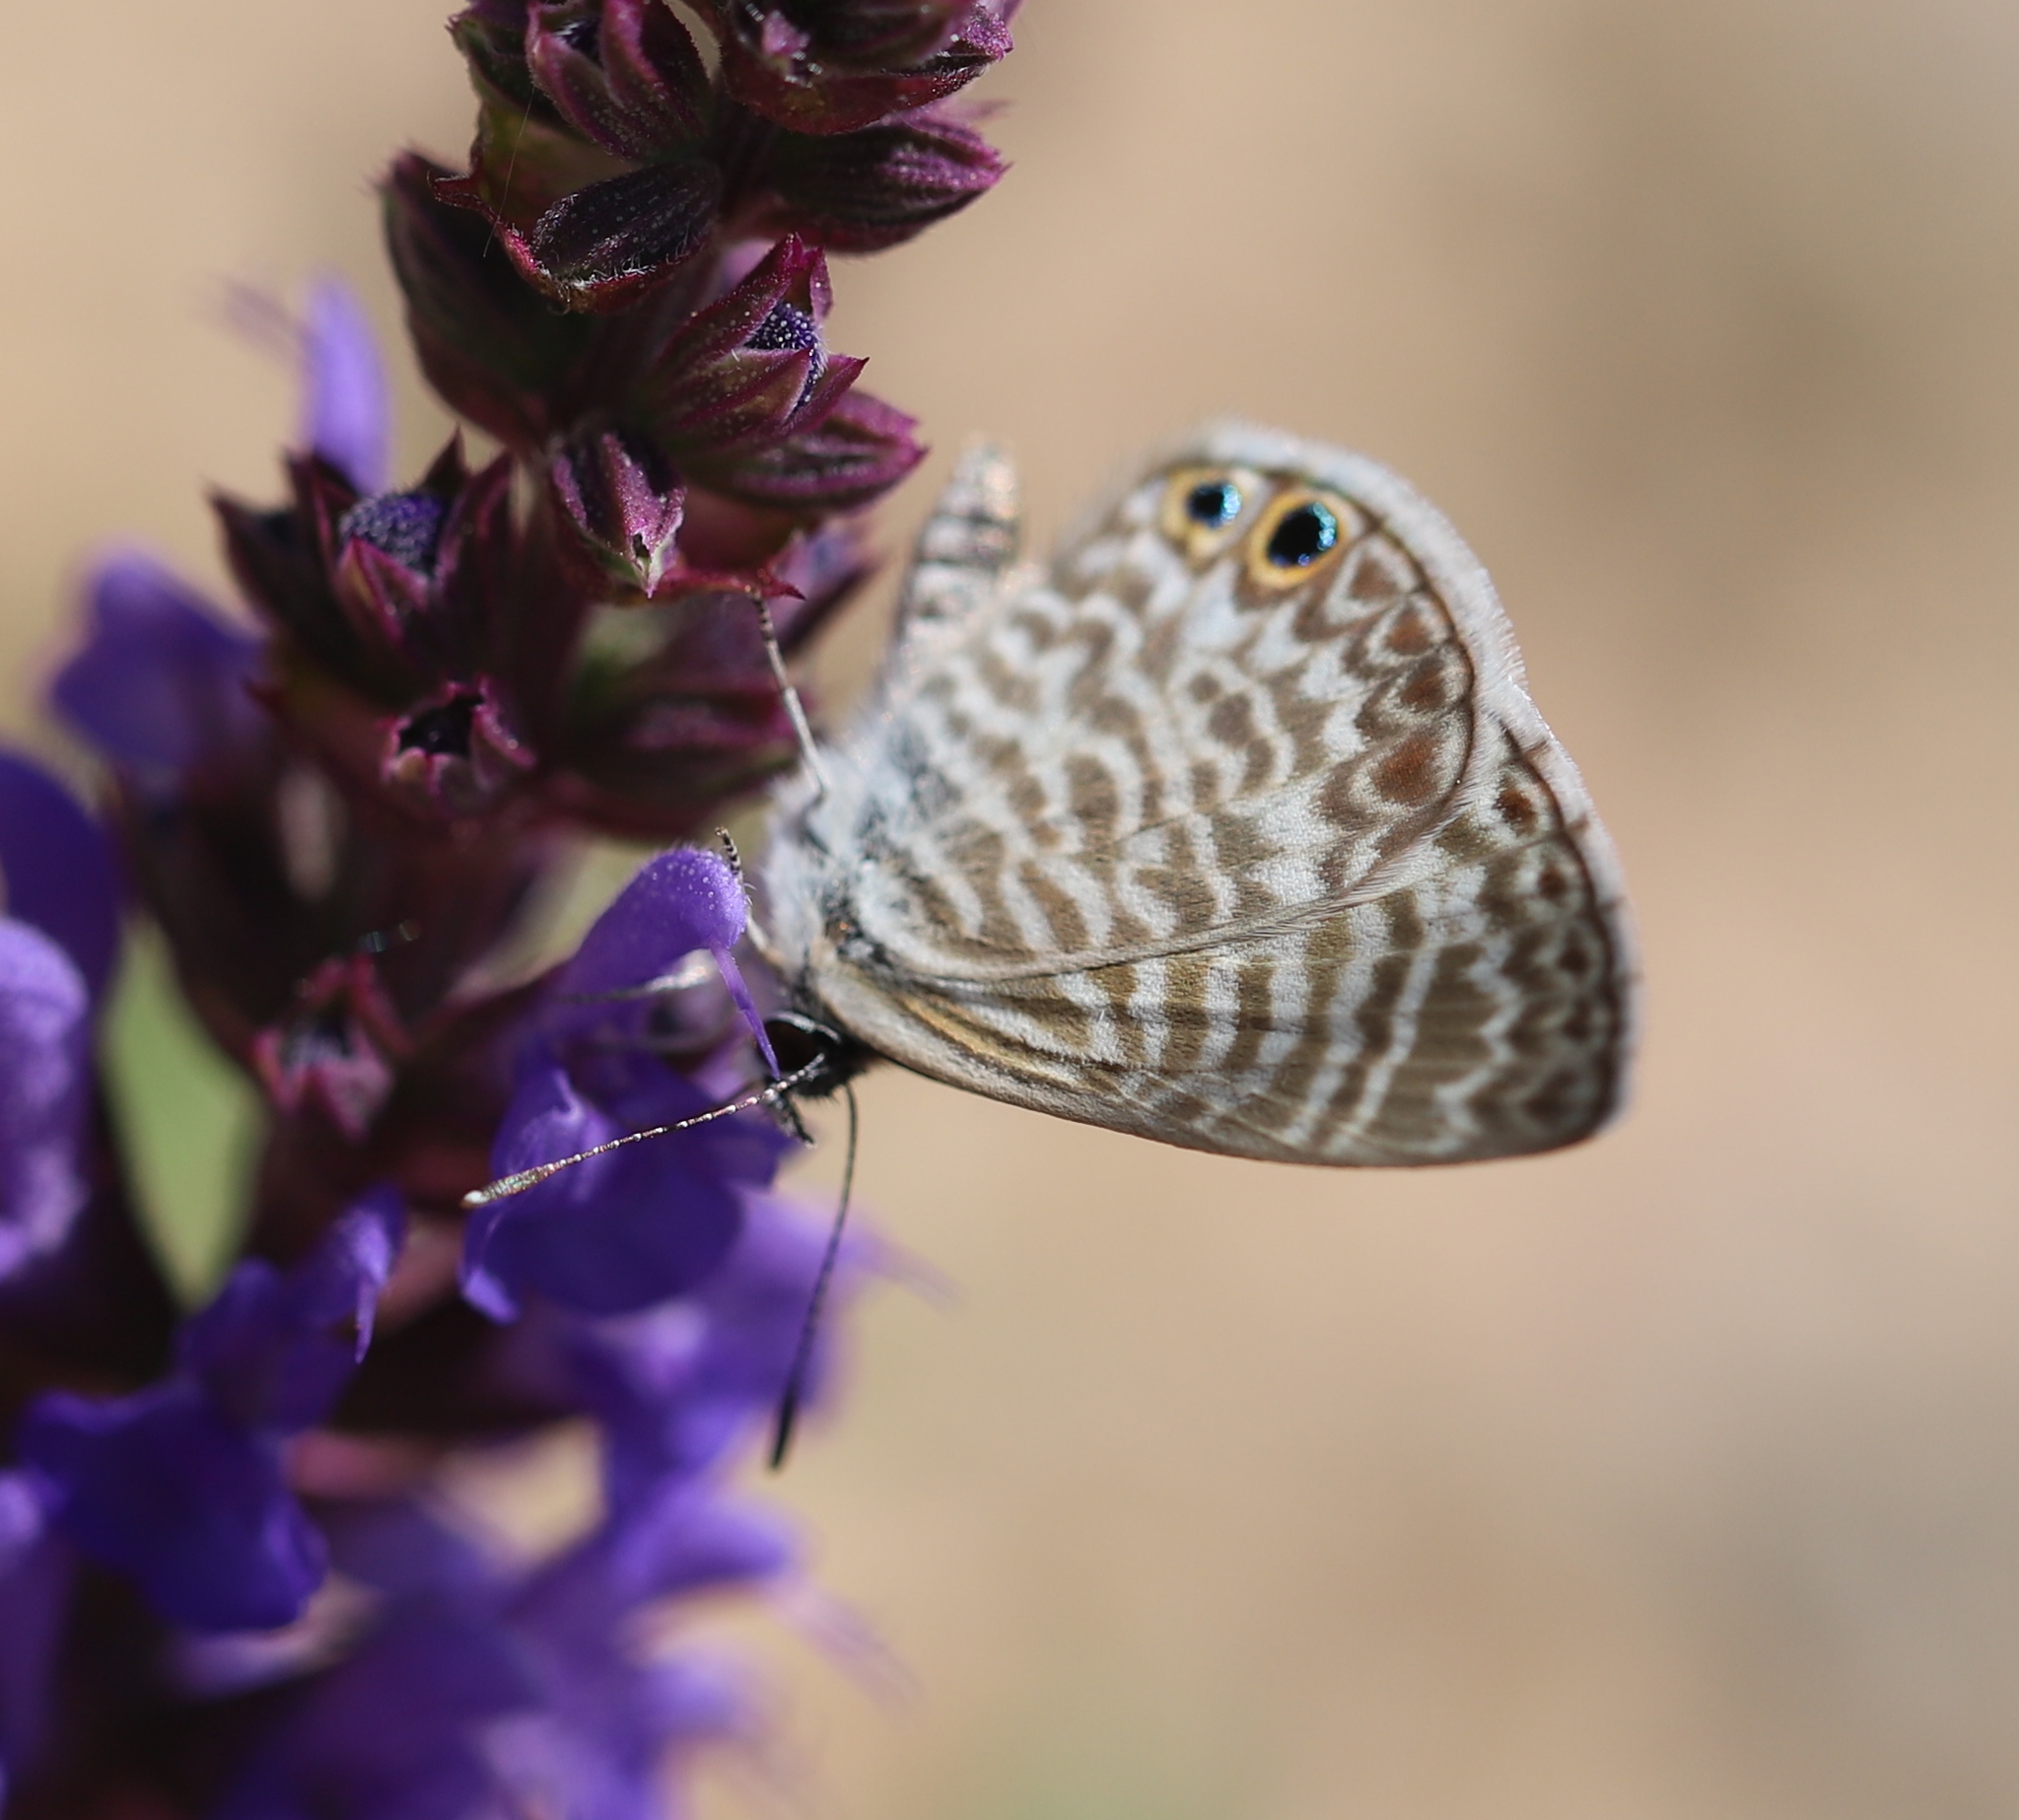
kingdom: Animalia
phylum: Arthropoda
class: Insecta
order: Lepidoptera
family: Lycaenidae
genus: Leptotes
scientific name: Leptotes marina
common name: Marine blue
